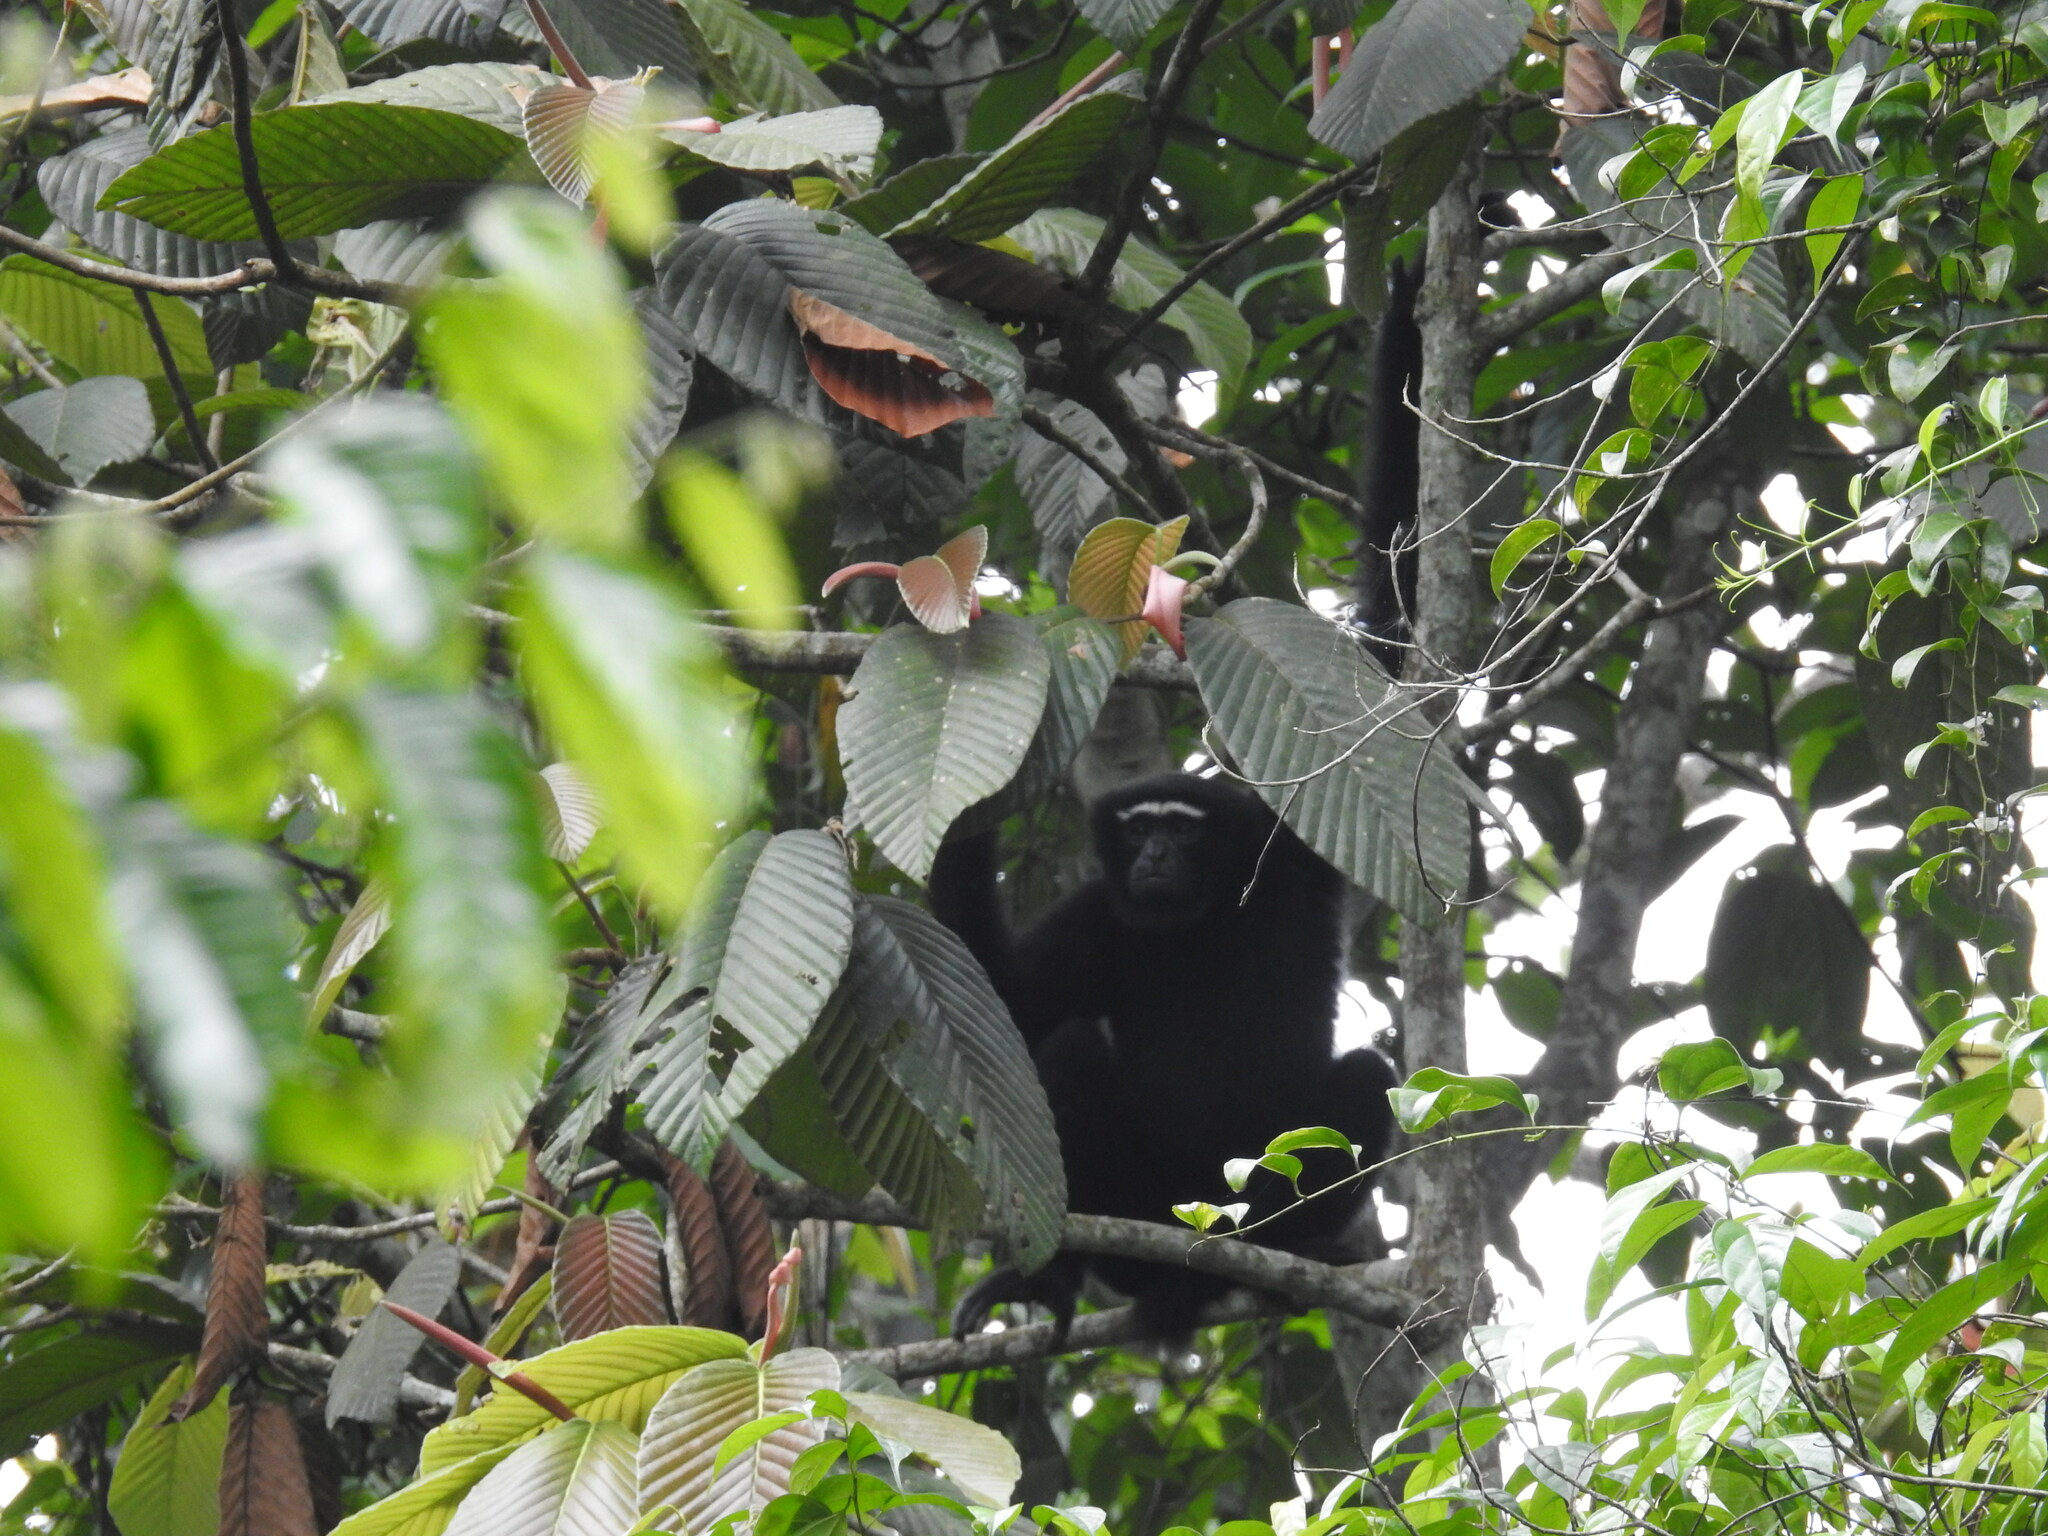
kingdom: Animalia
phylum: Chordata
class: Mammalia
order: Primates
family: Hylobatidae
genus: Hoolock
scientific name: Hoolock hoolock
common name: Western hoolock gibbon
